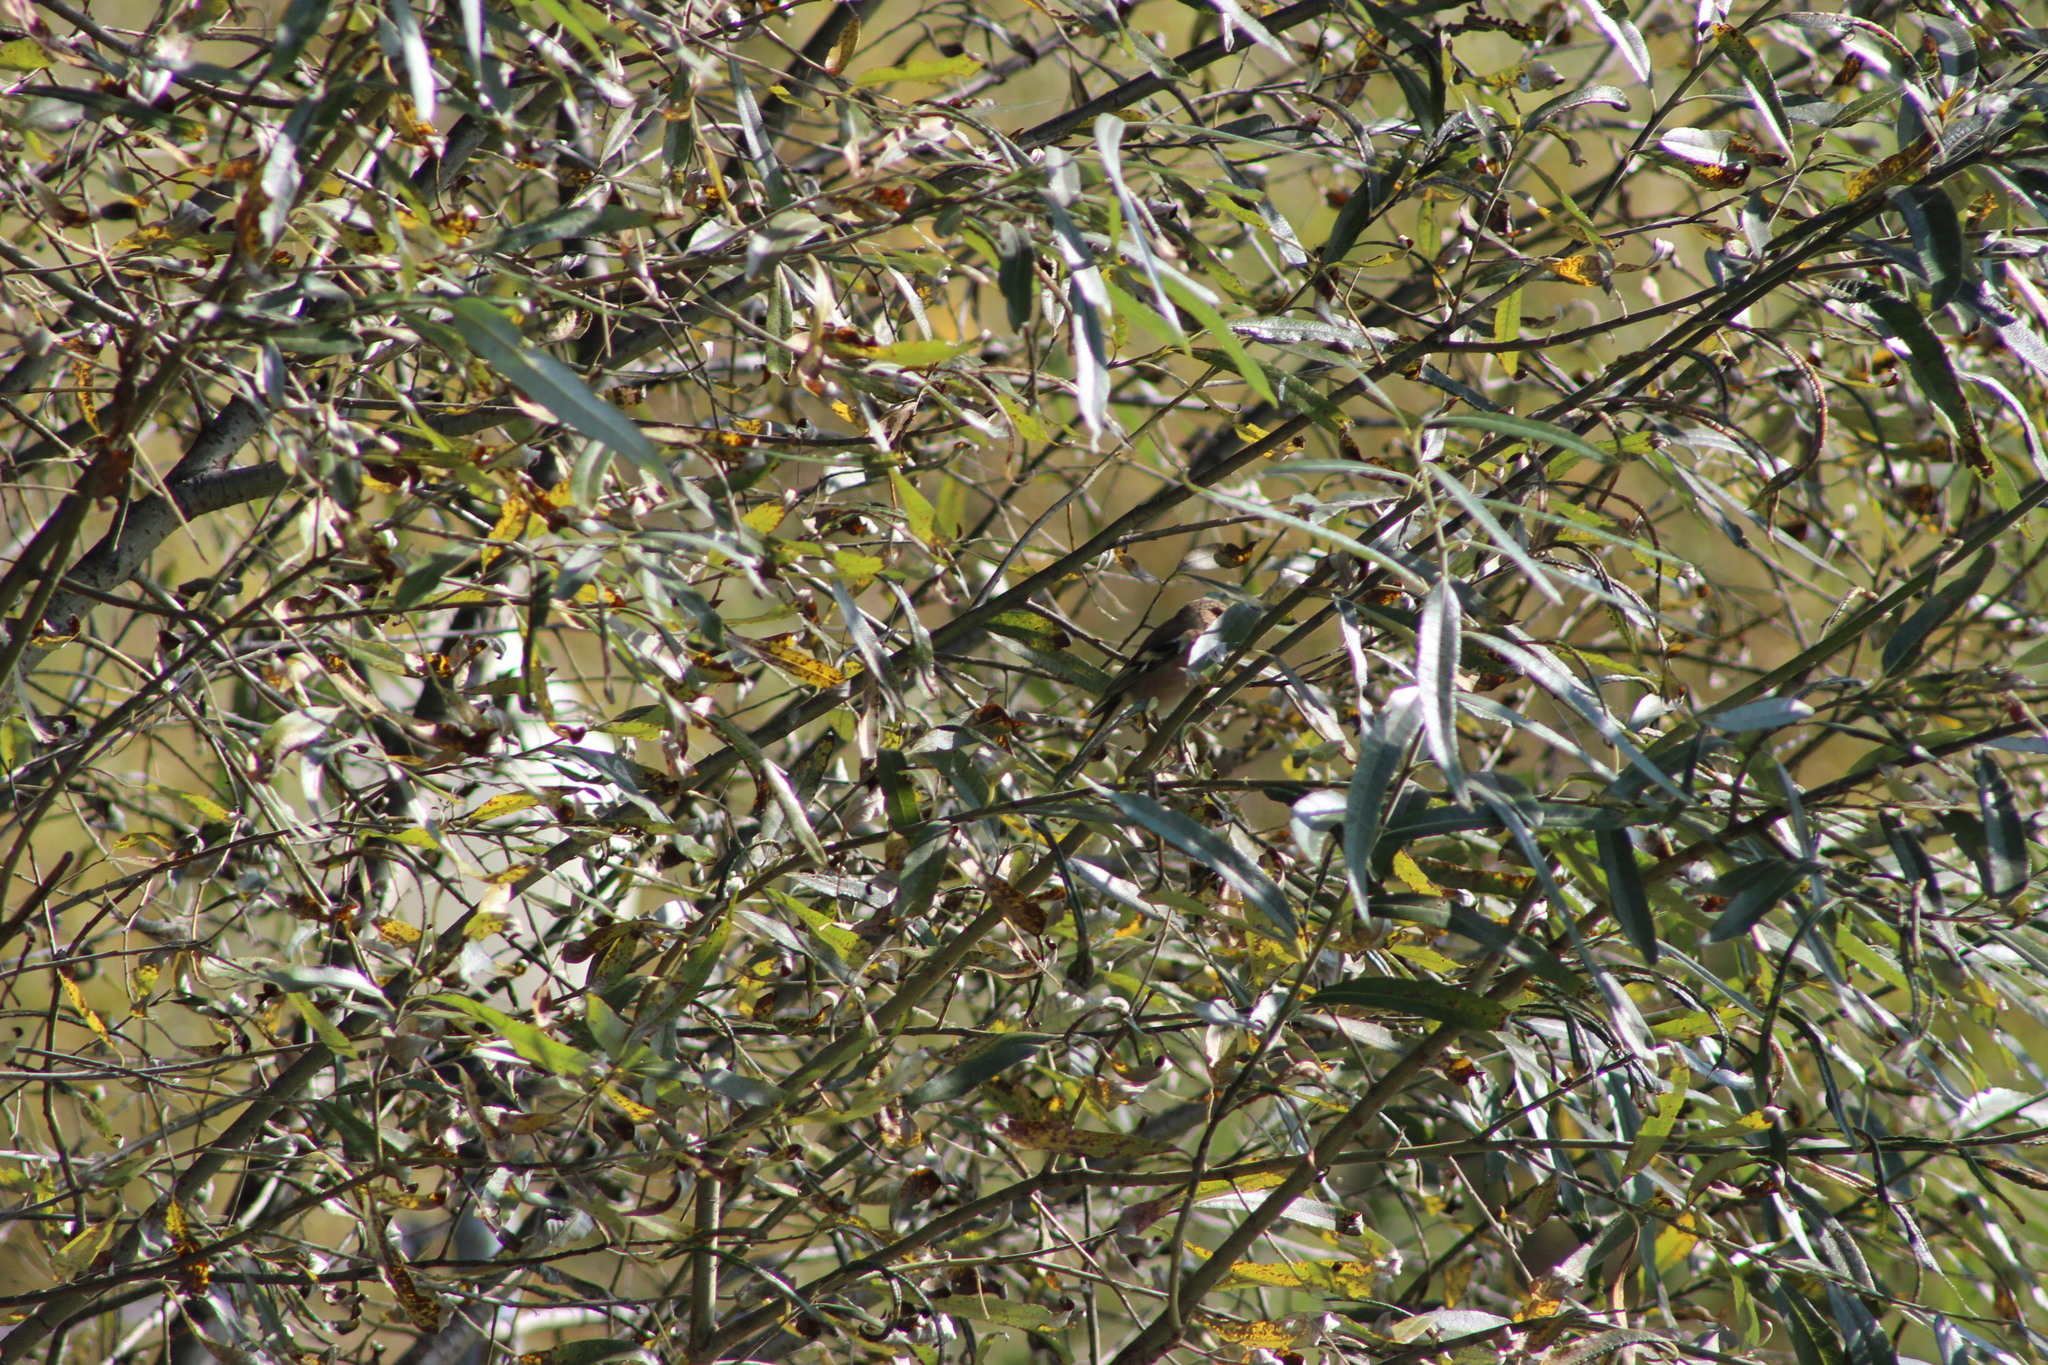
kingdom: Animalia
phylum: Chordata
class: Aves
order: Passeriformes
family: Fringillidae
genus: Fringilla
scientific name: Fringilla coelebs
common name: Common chaffinch
